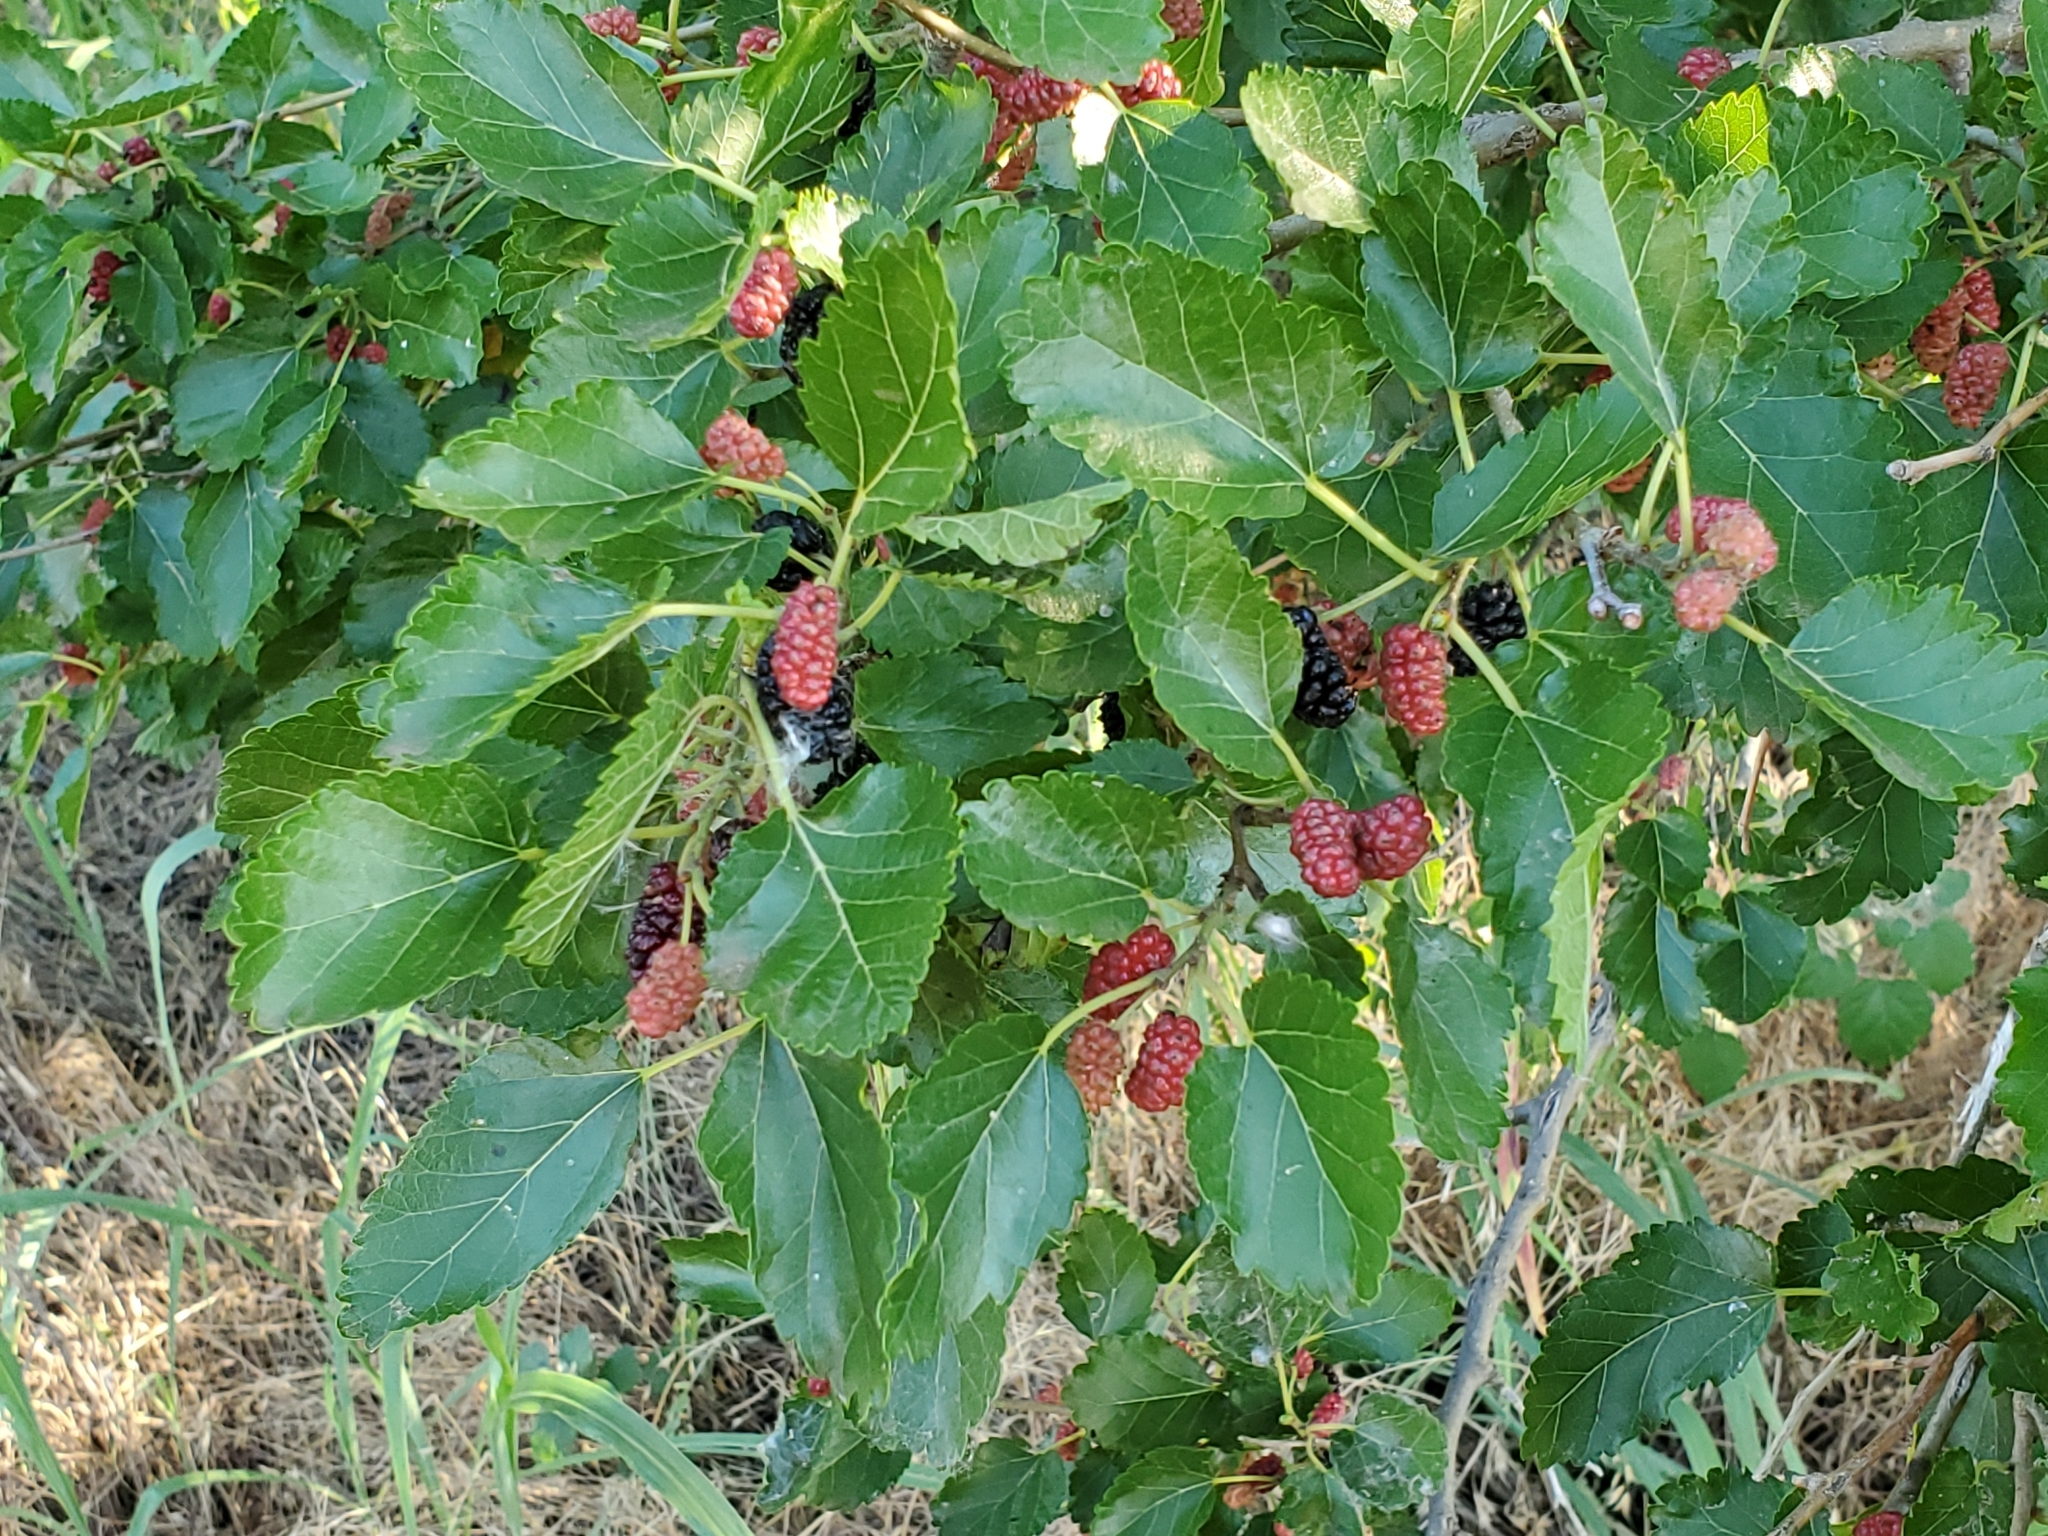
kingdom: Plantae
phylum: Tracheophyta
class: Magnoliopsida
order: Rosales
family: Moraceae
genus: Morus
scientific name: Morus alba
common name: White mulberry
